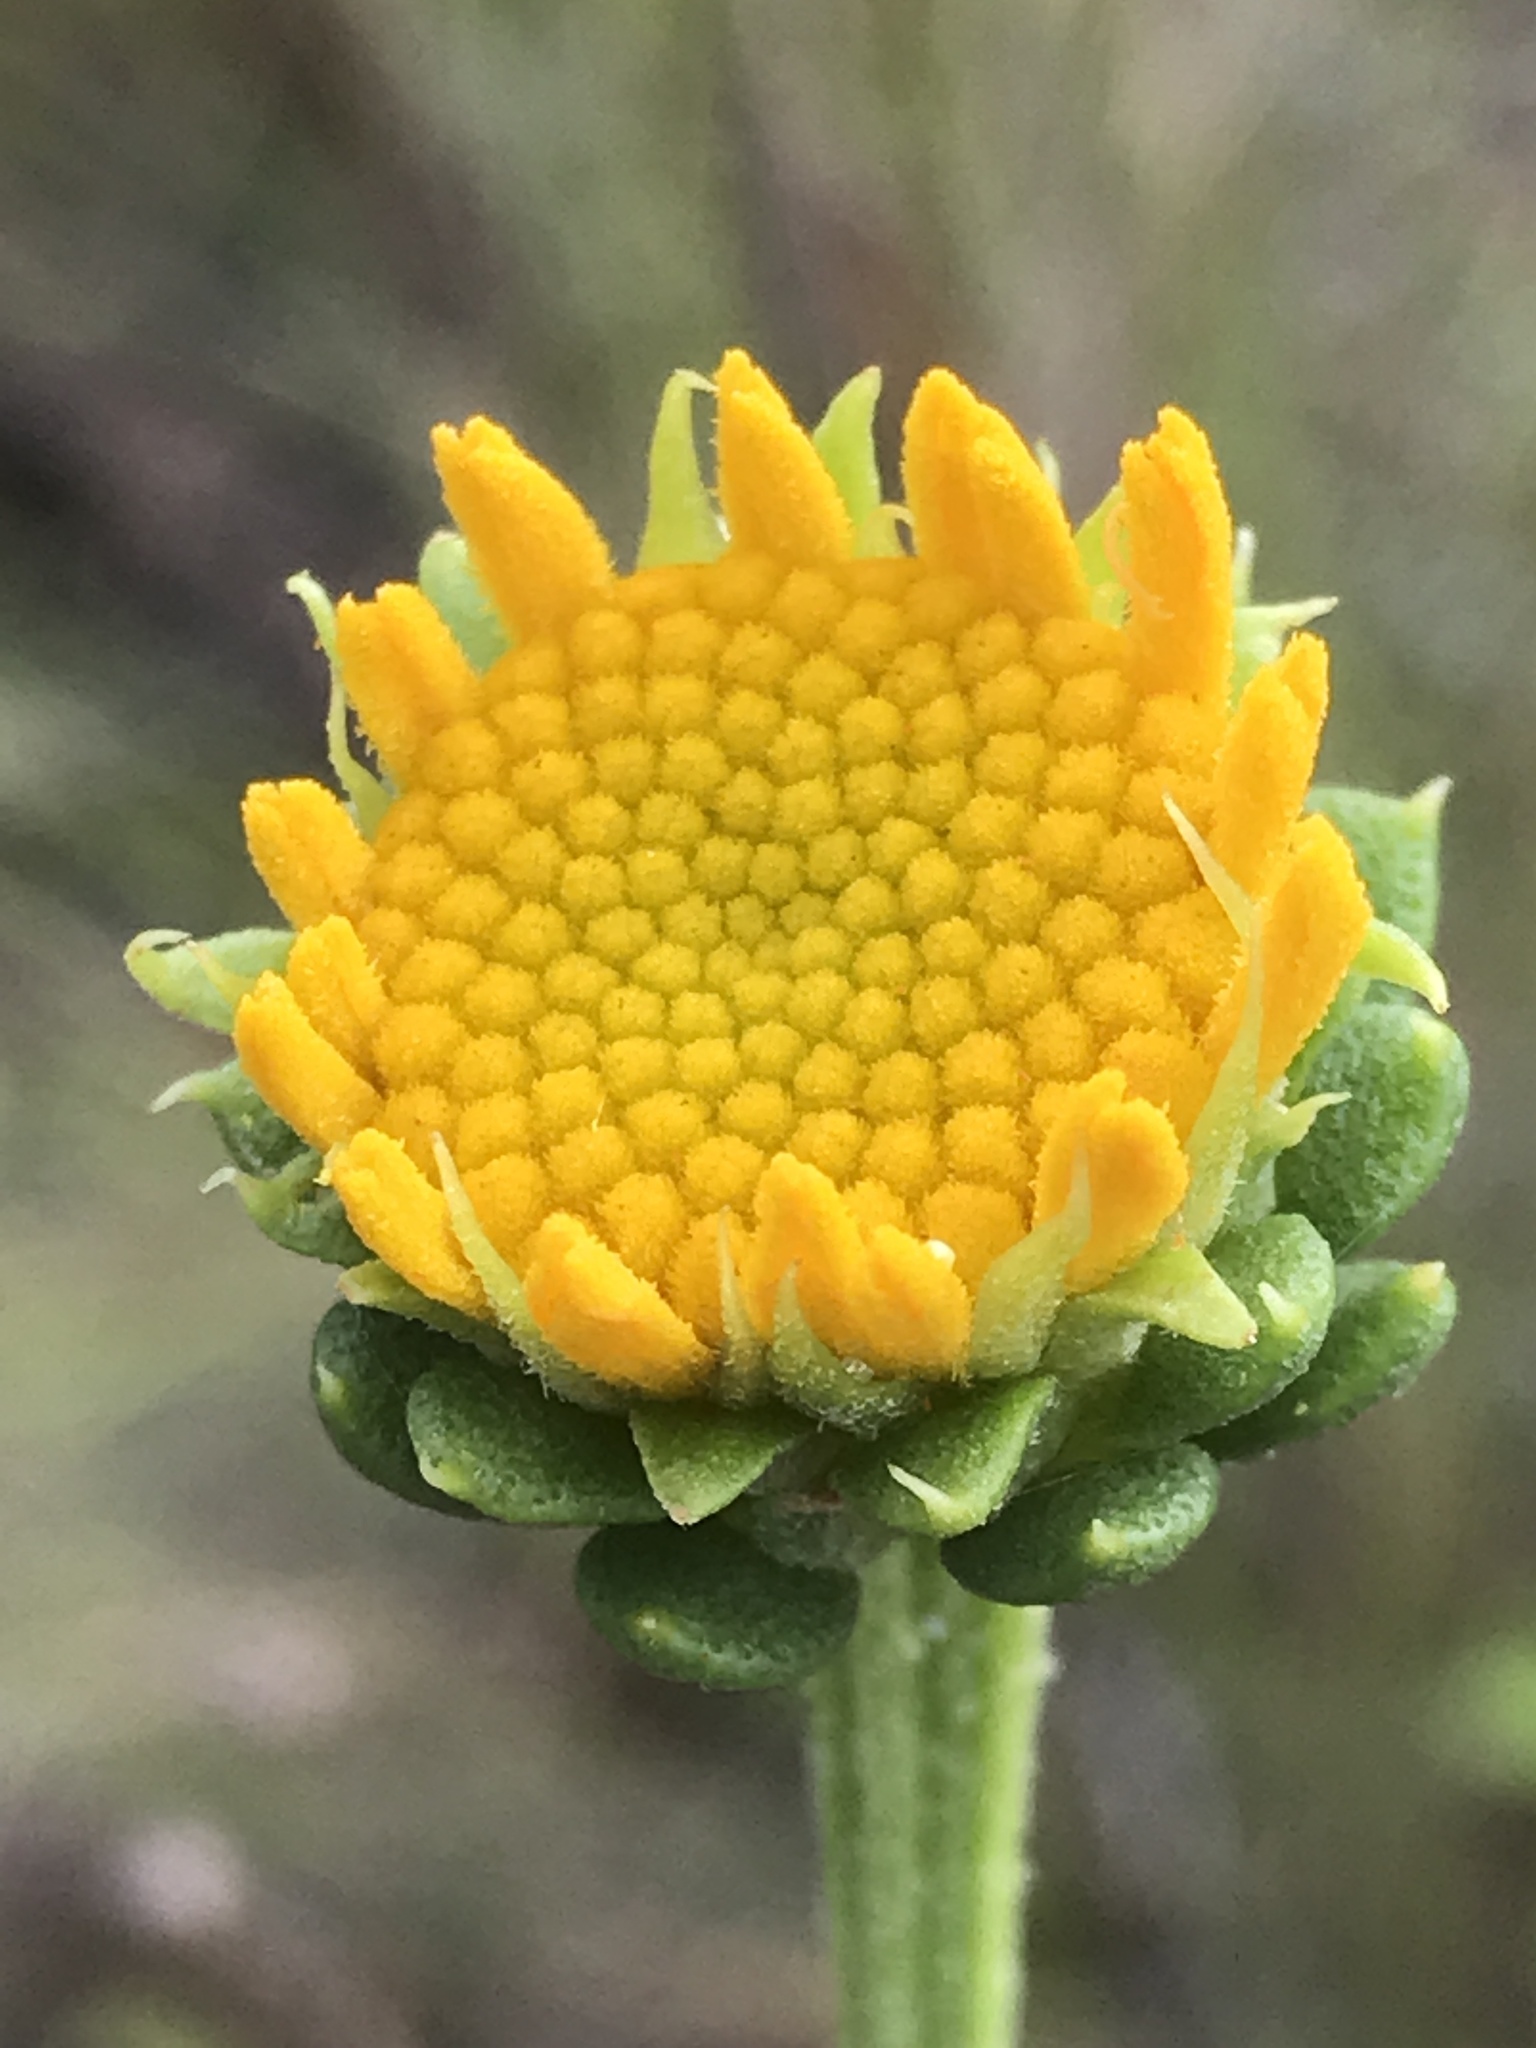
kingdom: Plantae
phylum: Tracheophyta
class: Magnoliopsida
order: Asterales
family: Asteraceae
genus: Balduina
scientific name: Balduina uniflora
